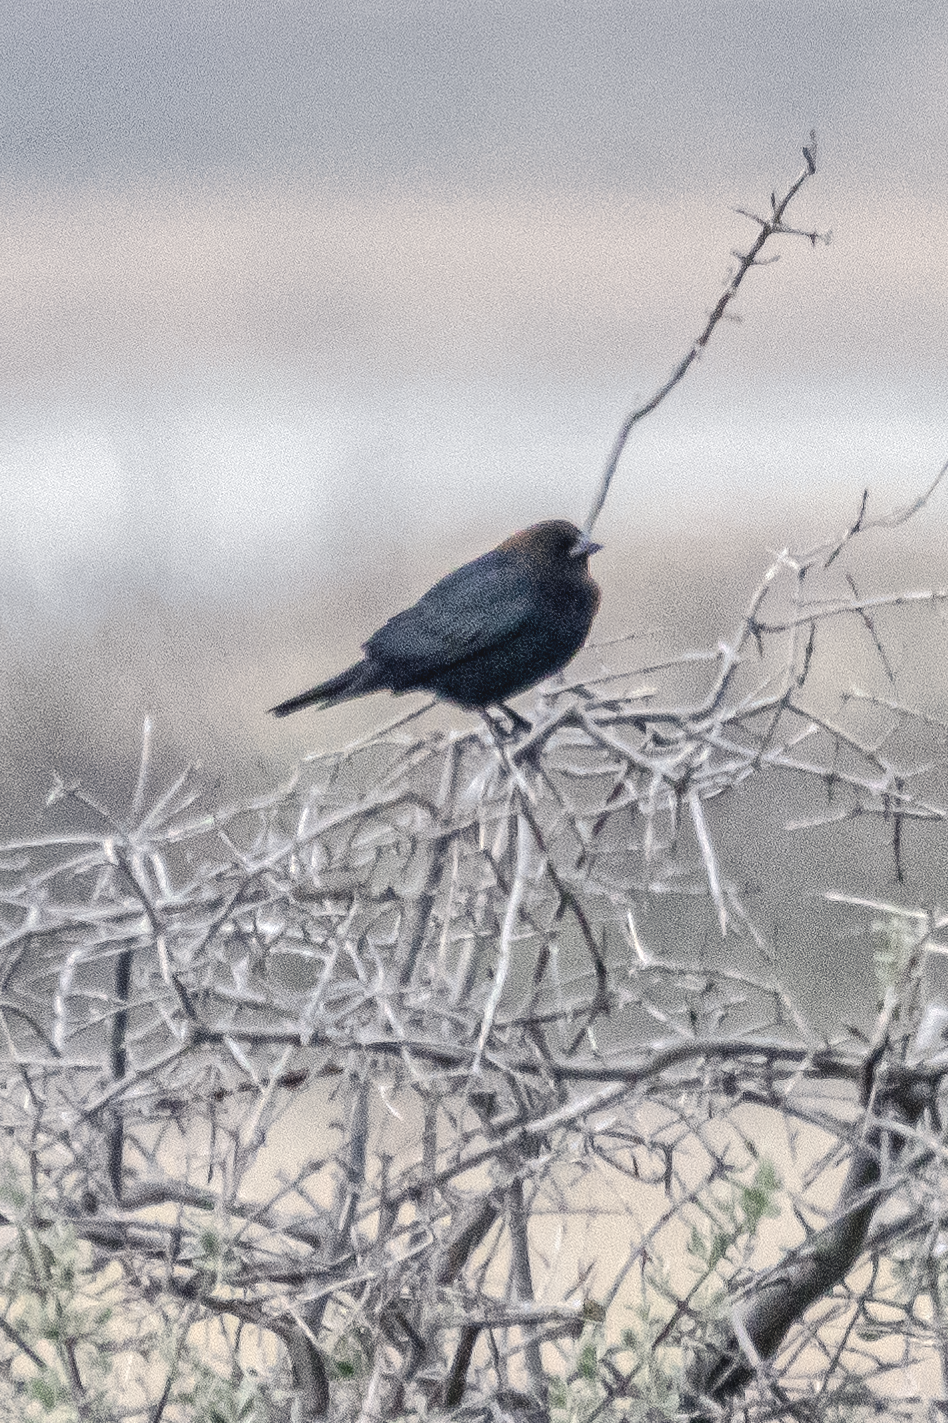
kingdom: Animalia
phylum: Chordata
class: Aves
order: Passeriformes
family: Icteridae
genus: Molothrus
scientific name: Molothrus ater
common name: Brown-headed cowbird
